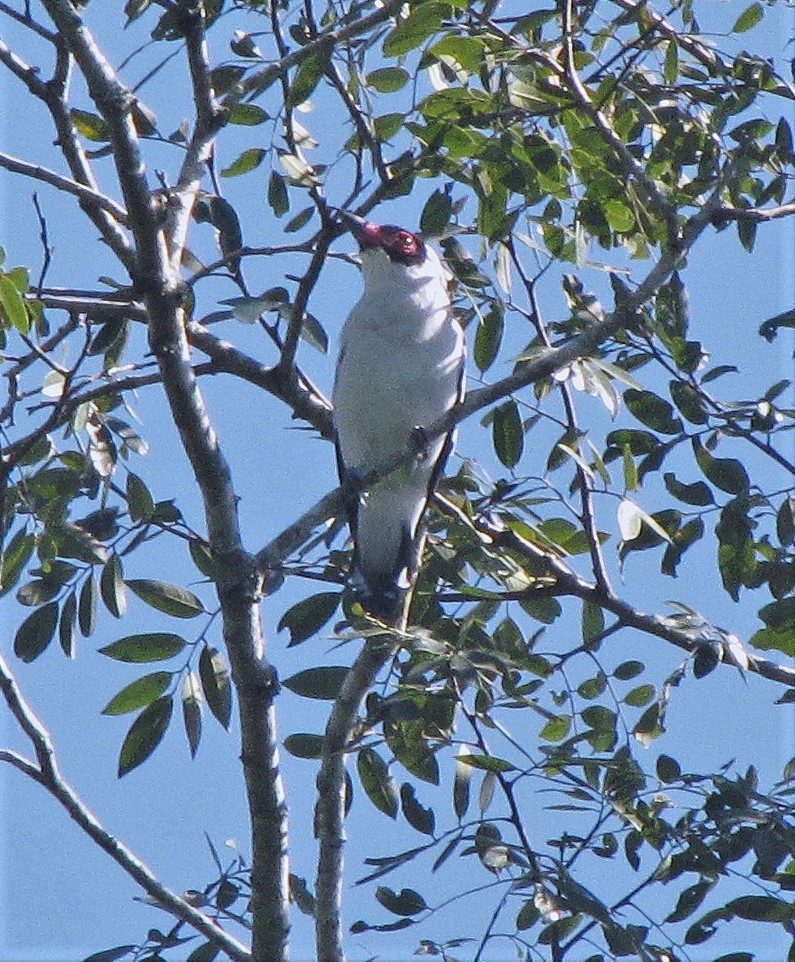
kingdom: Animalia
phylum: Chordata
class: Aves
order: Passeriformes
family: Cotingidae
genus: Tityra
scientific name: Tityra semifasciata
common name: Masked tityra
